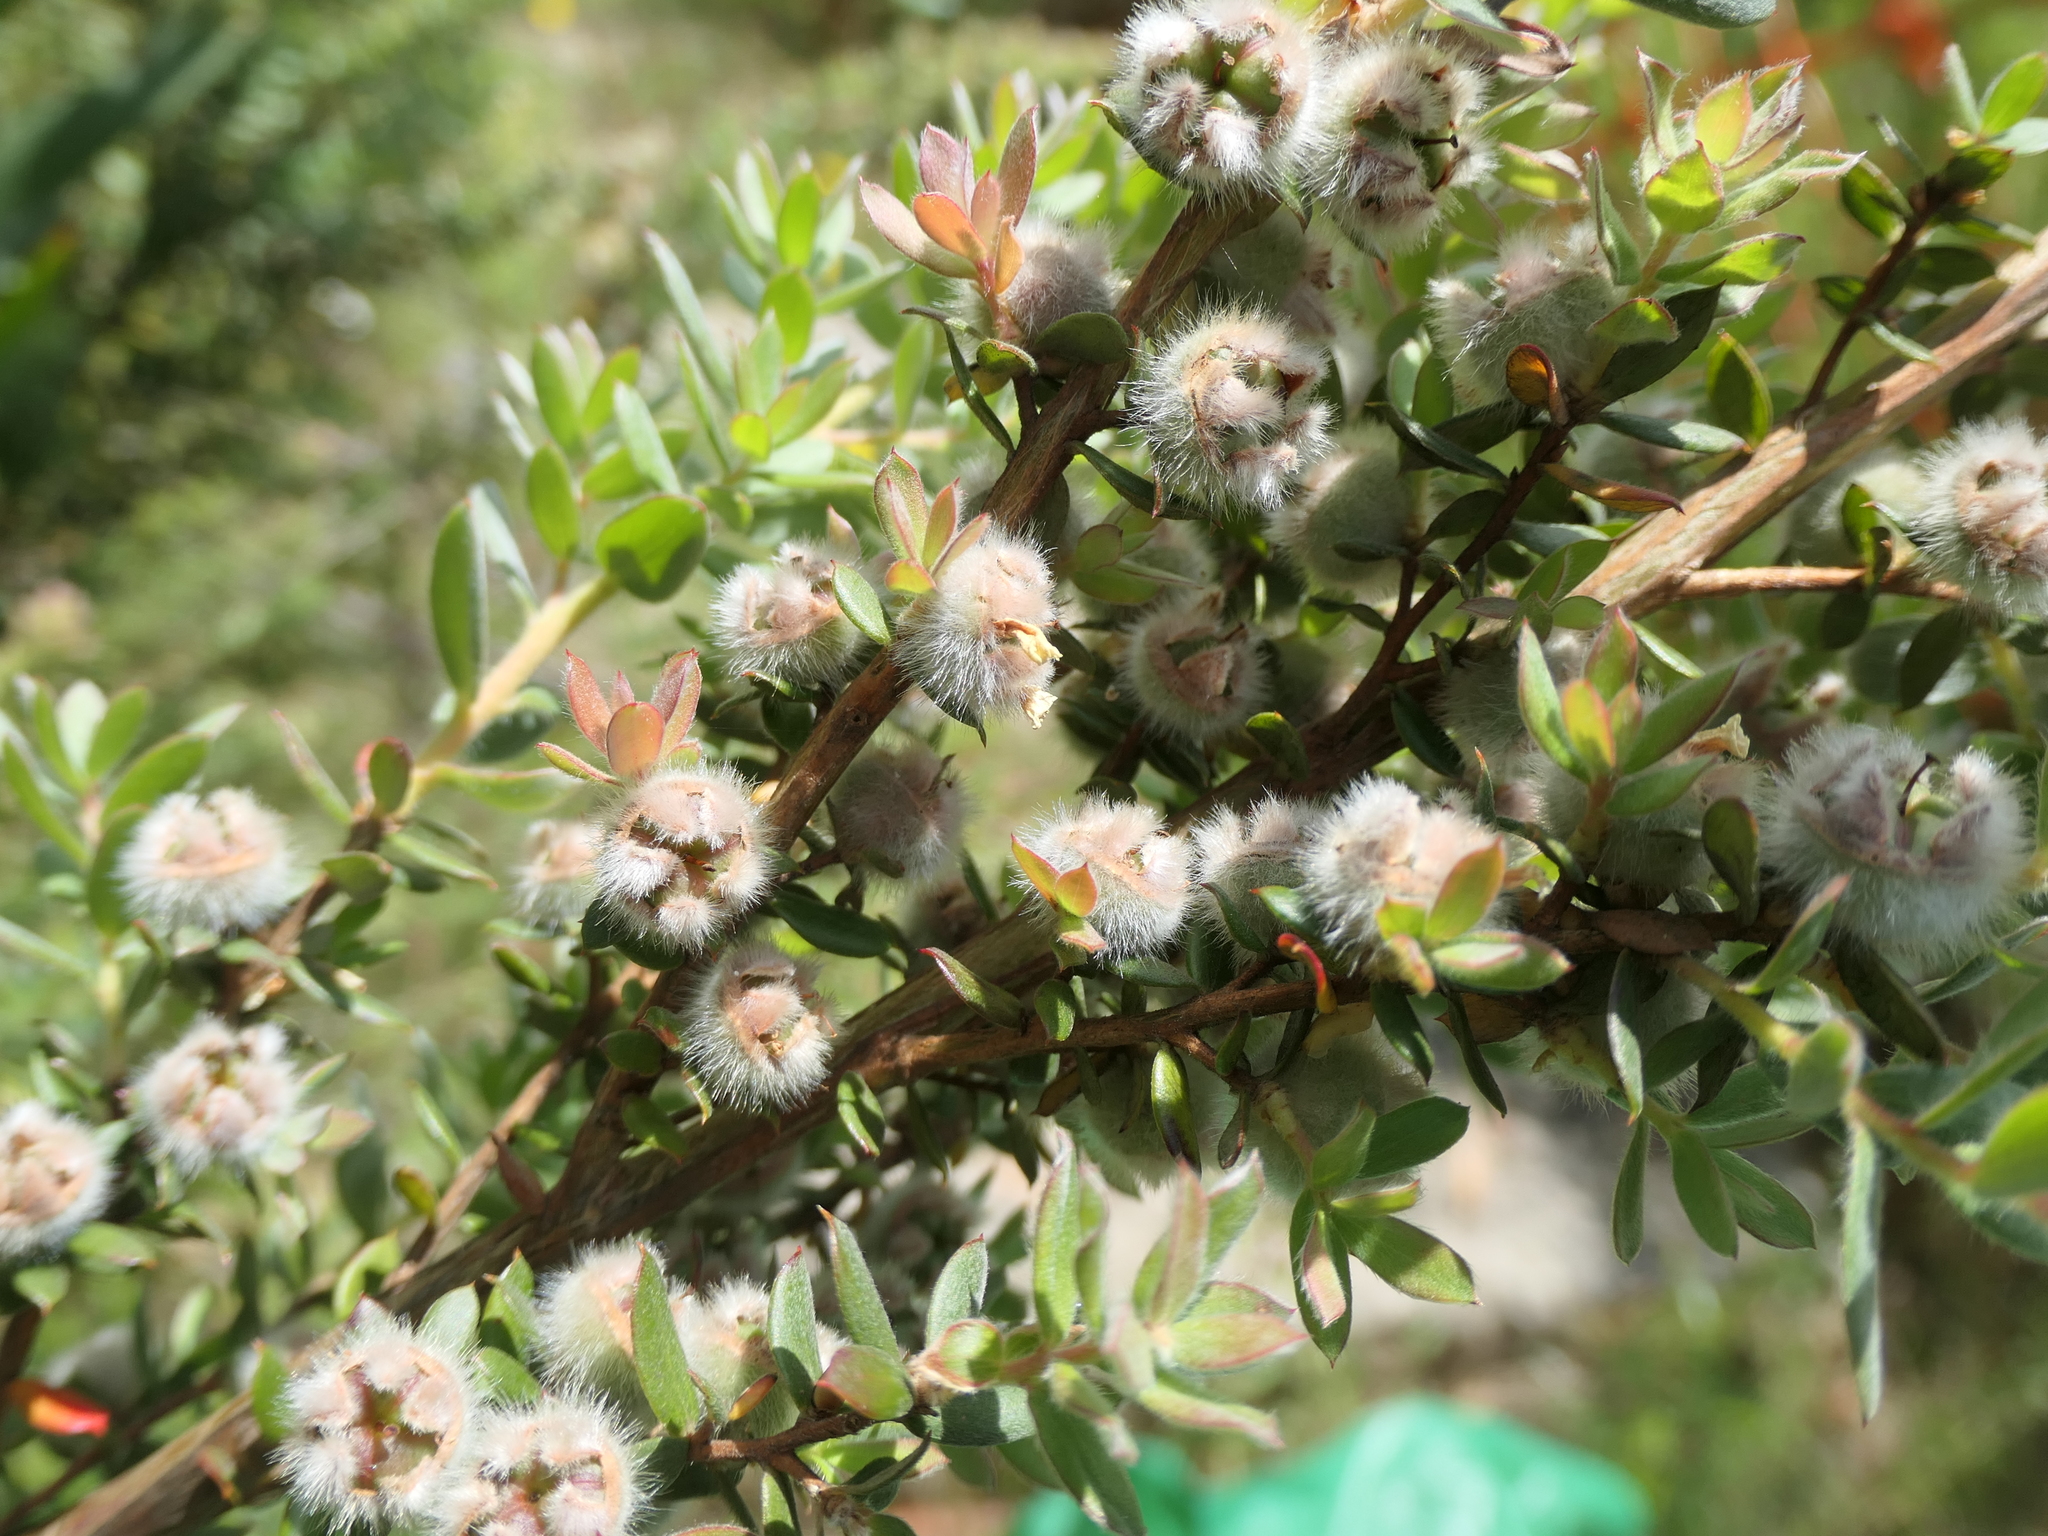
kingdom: Plantae
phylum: Tracheophyta
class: Magnoliopsida
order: Myrtales
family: Myrtaceae
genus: Leptospermum
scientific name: Leptospermum grandifolium
